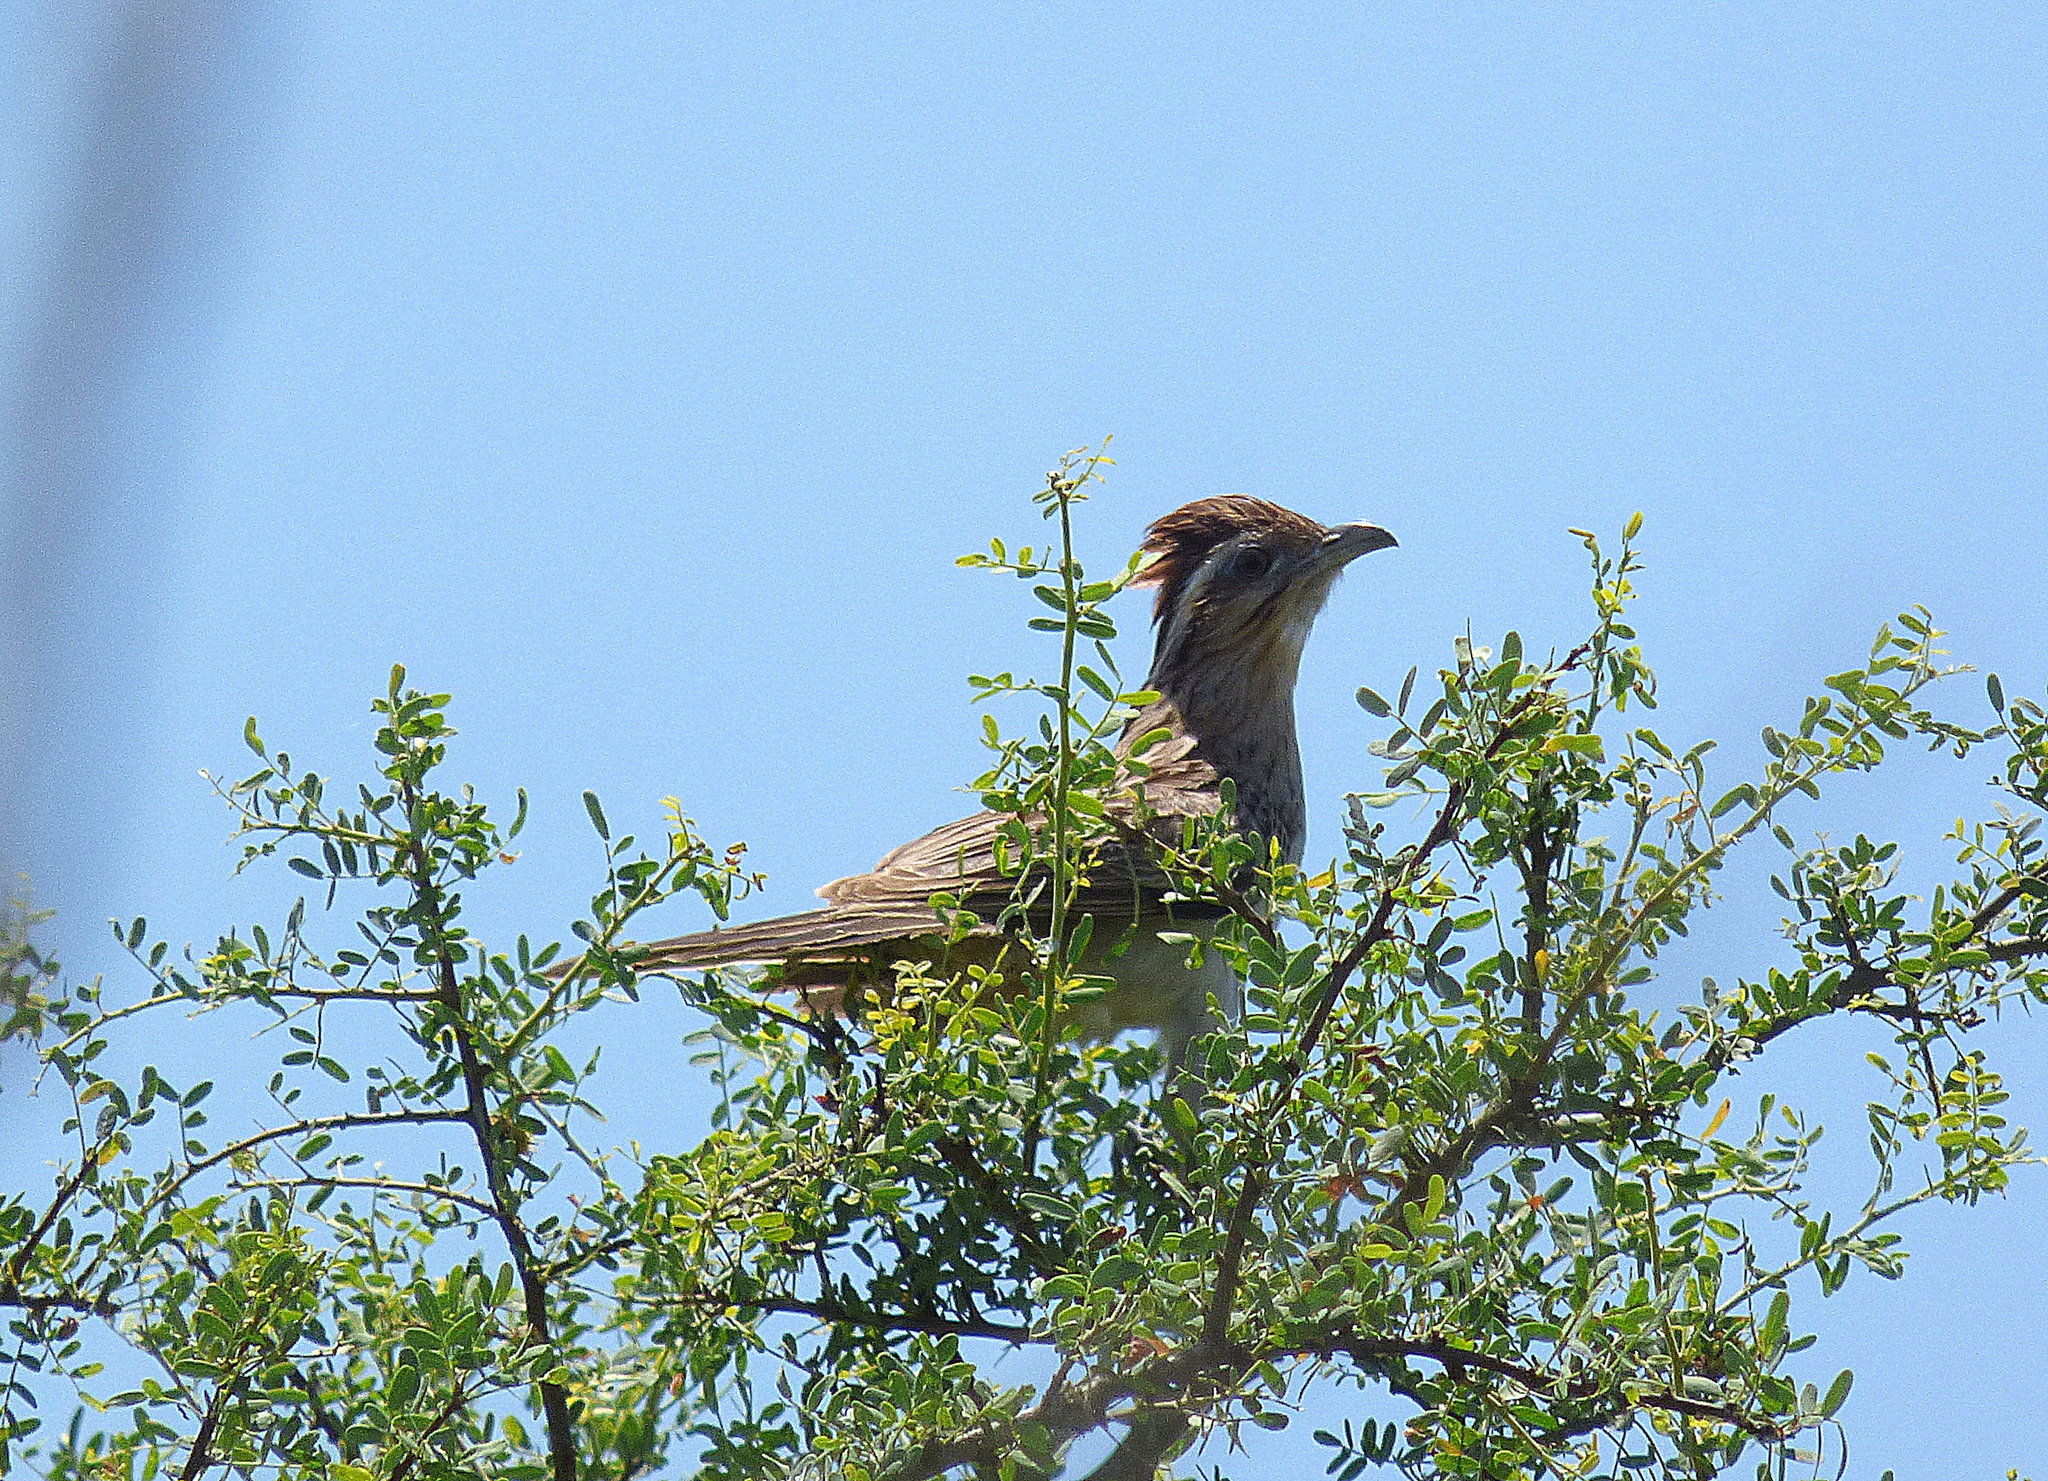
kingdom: Animalia
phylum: Chordata
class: Aves
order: Cuculiformes
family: Cuculidae
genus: Tapera
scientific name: Tapera naevia
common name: Striped cuckoo
